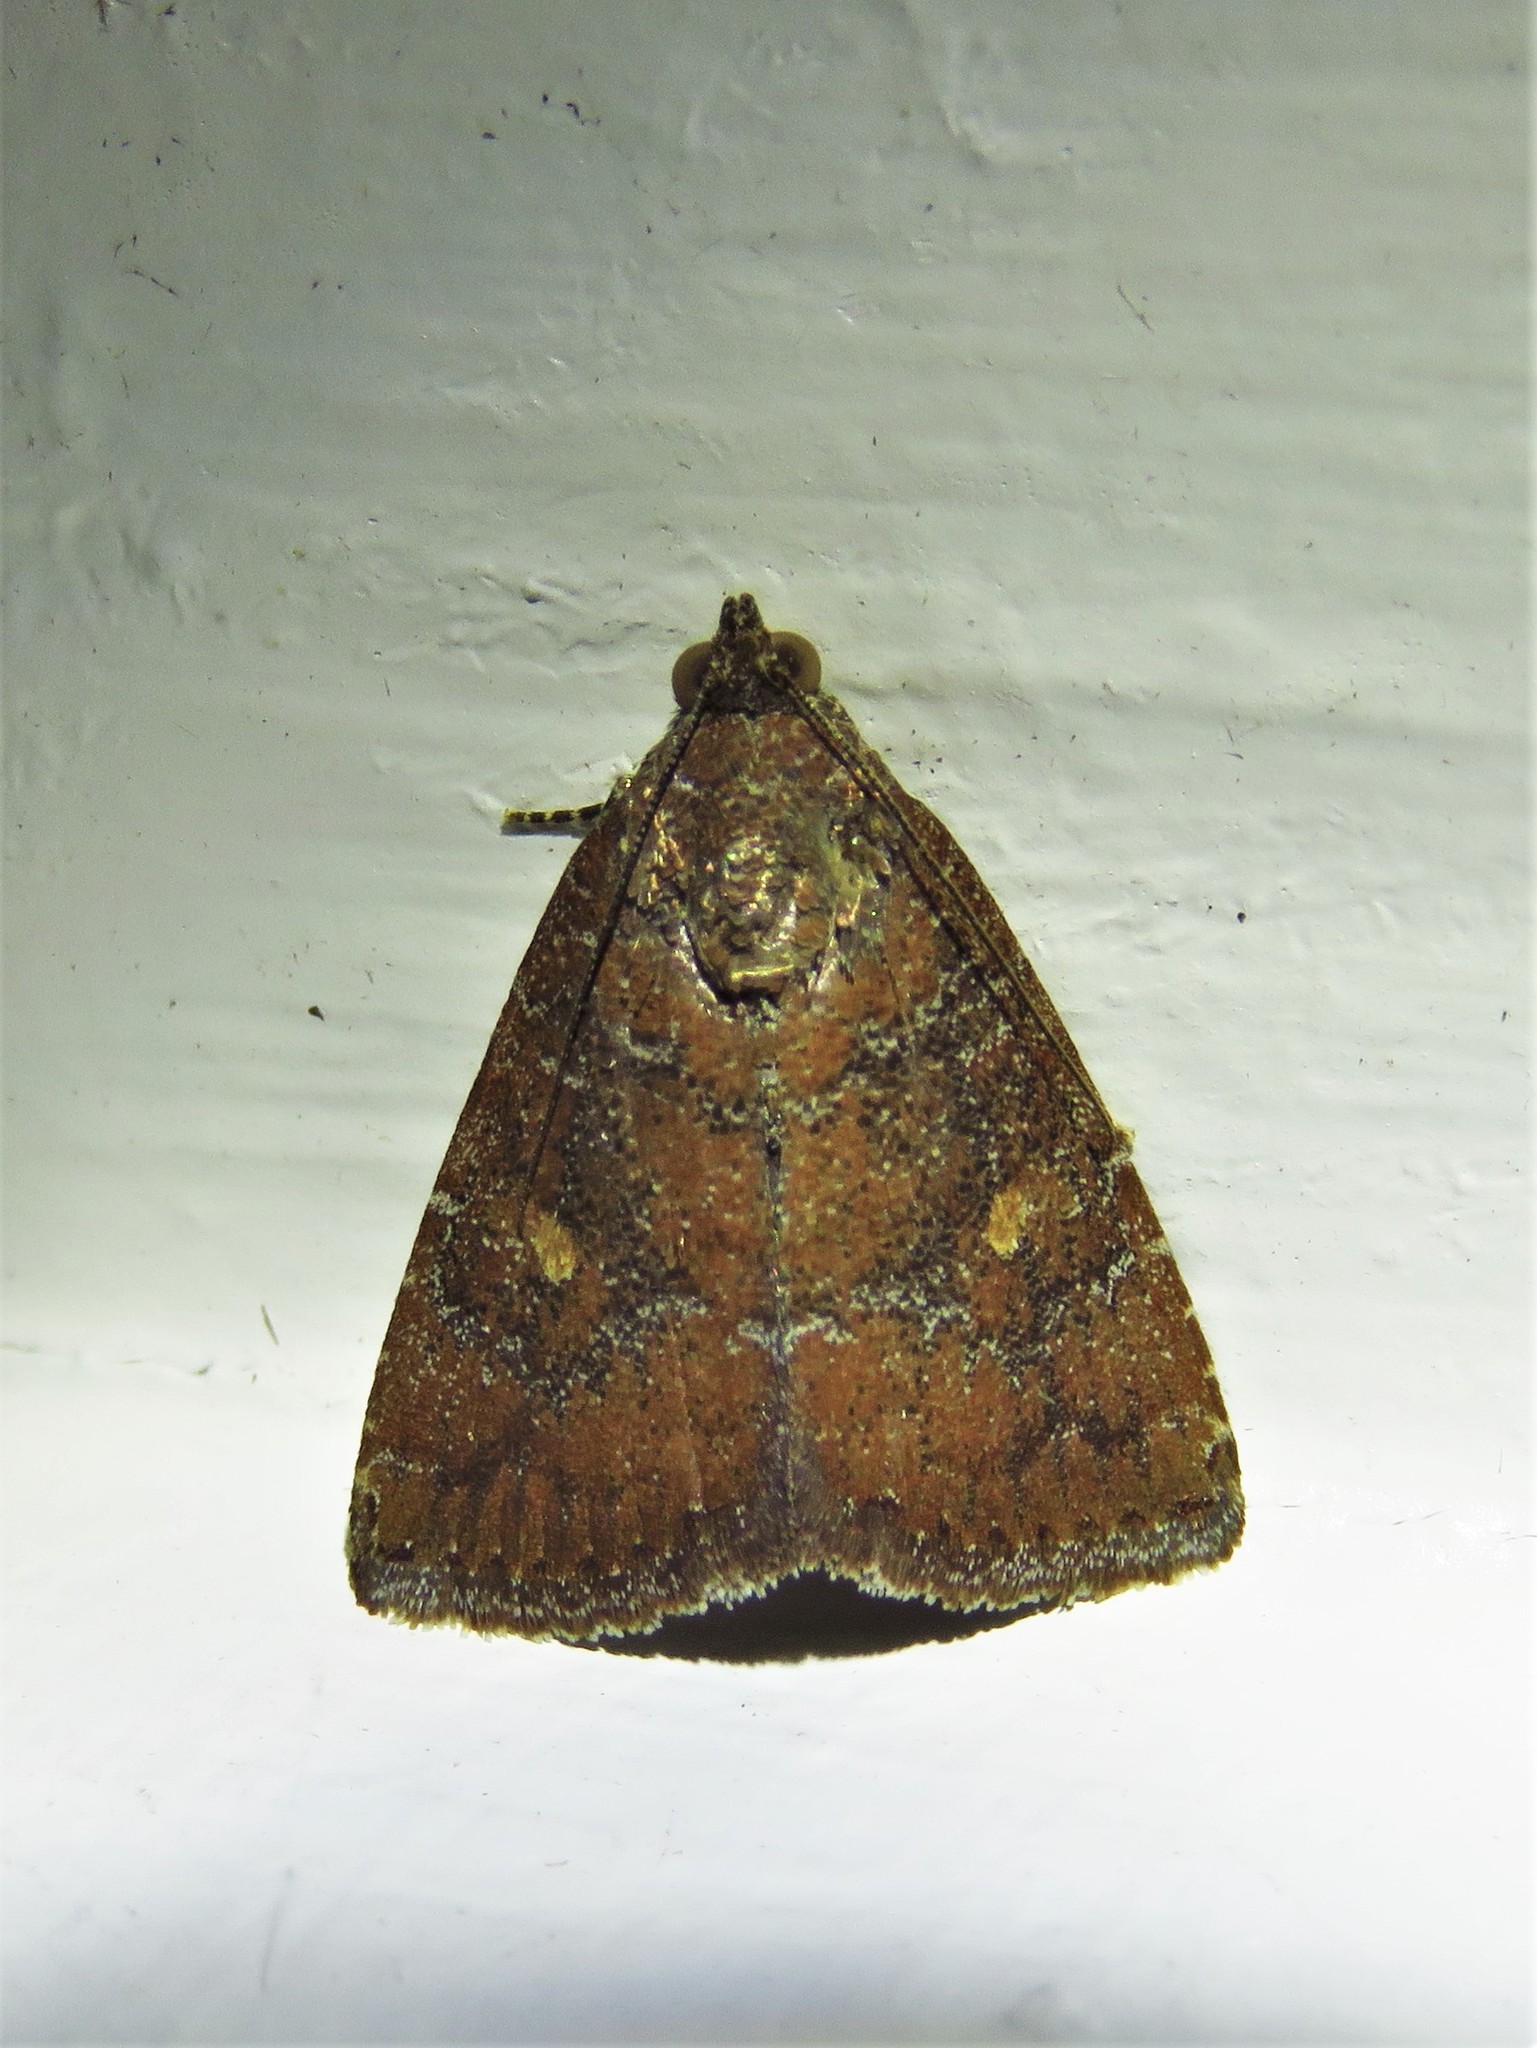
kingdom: Animalia
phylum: Arthropoda
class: Insecta
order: Lepidoptera
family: Noctuidae
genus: Amyna
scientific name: Amyna stricta
